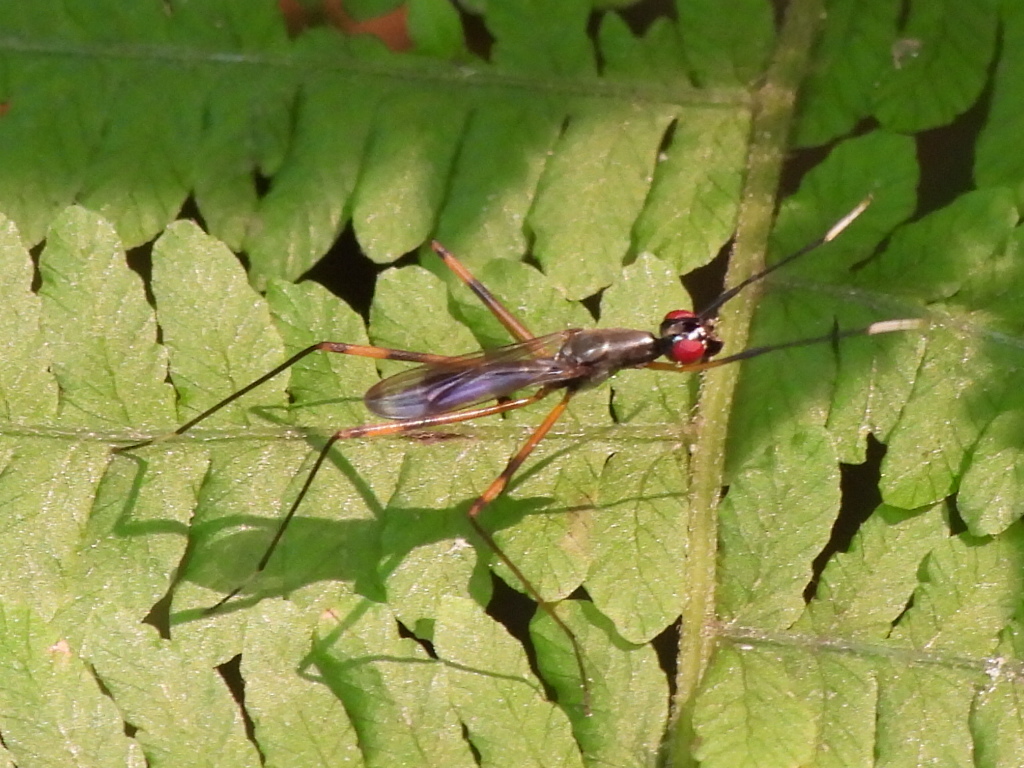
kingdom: Animalia
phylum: Arthropoda
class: Insecta
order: Diptera
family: Micropezidae
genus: Rainieria
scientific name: Rainieria antennaepes
